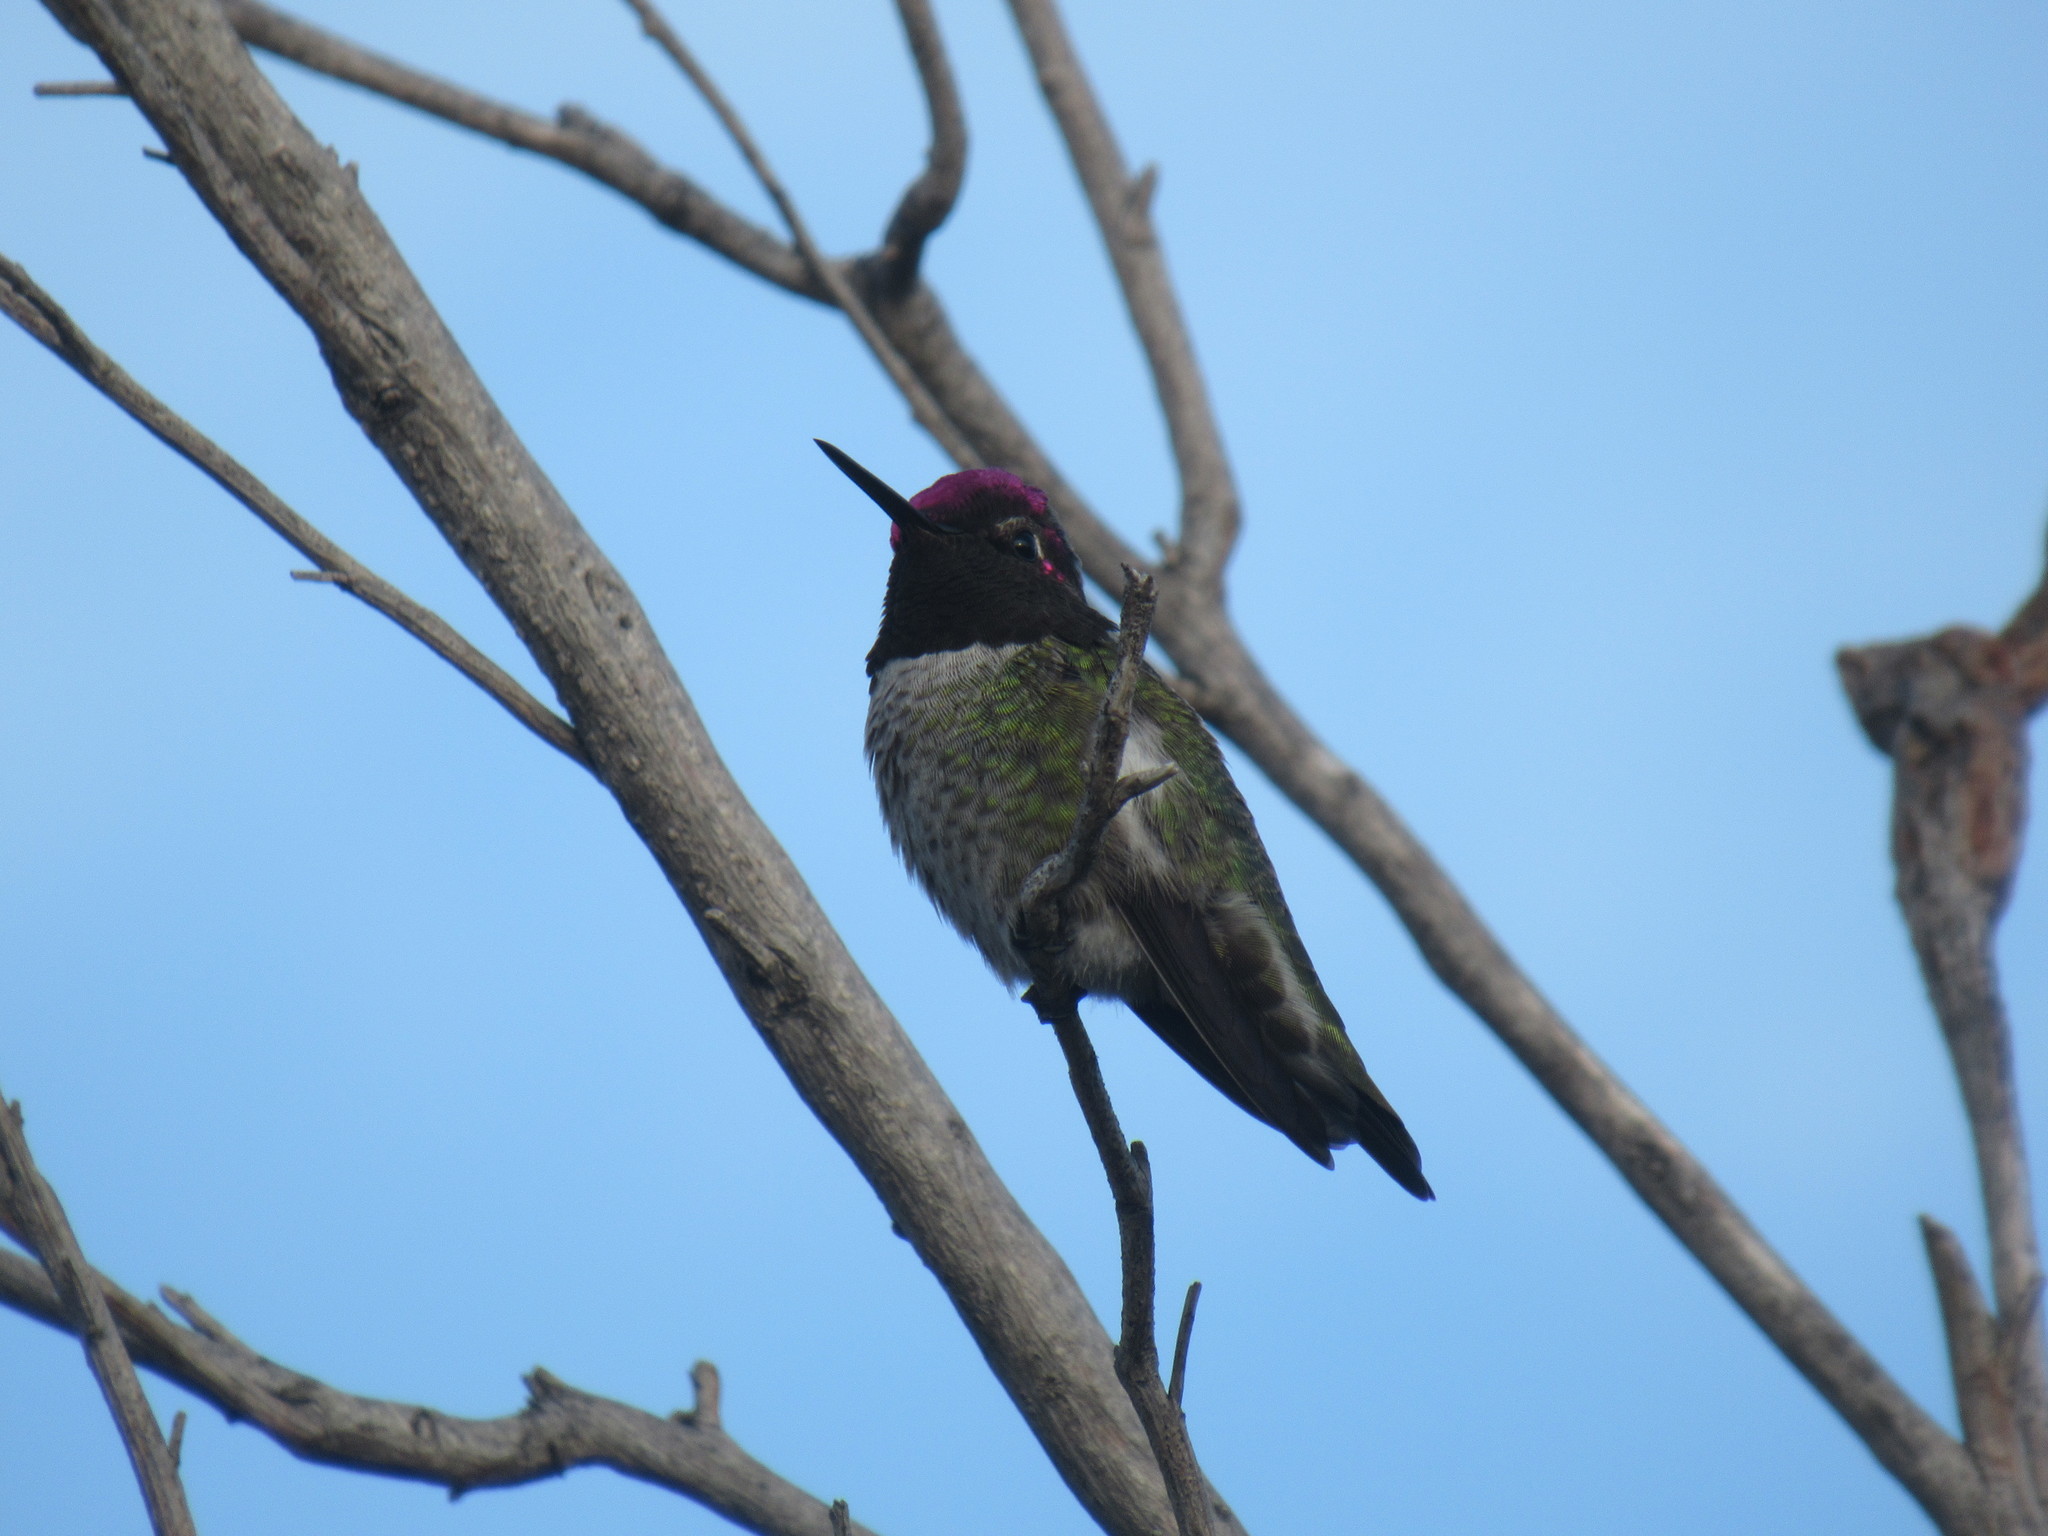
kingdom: Animalia
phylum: Chordata
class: Aves
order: Apodiformes
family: Trochilidae
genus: Calypte
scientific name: Calypte anna
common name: Anna's hummingbird
